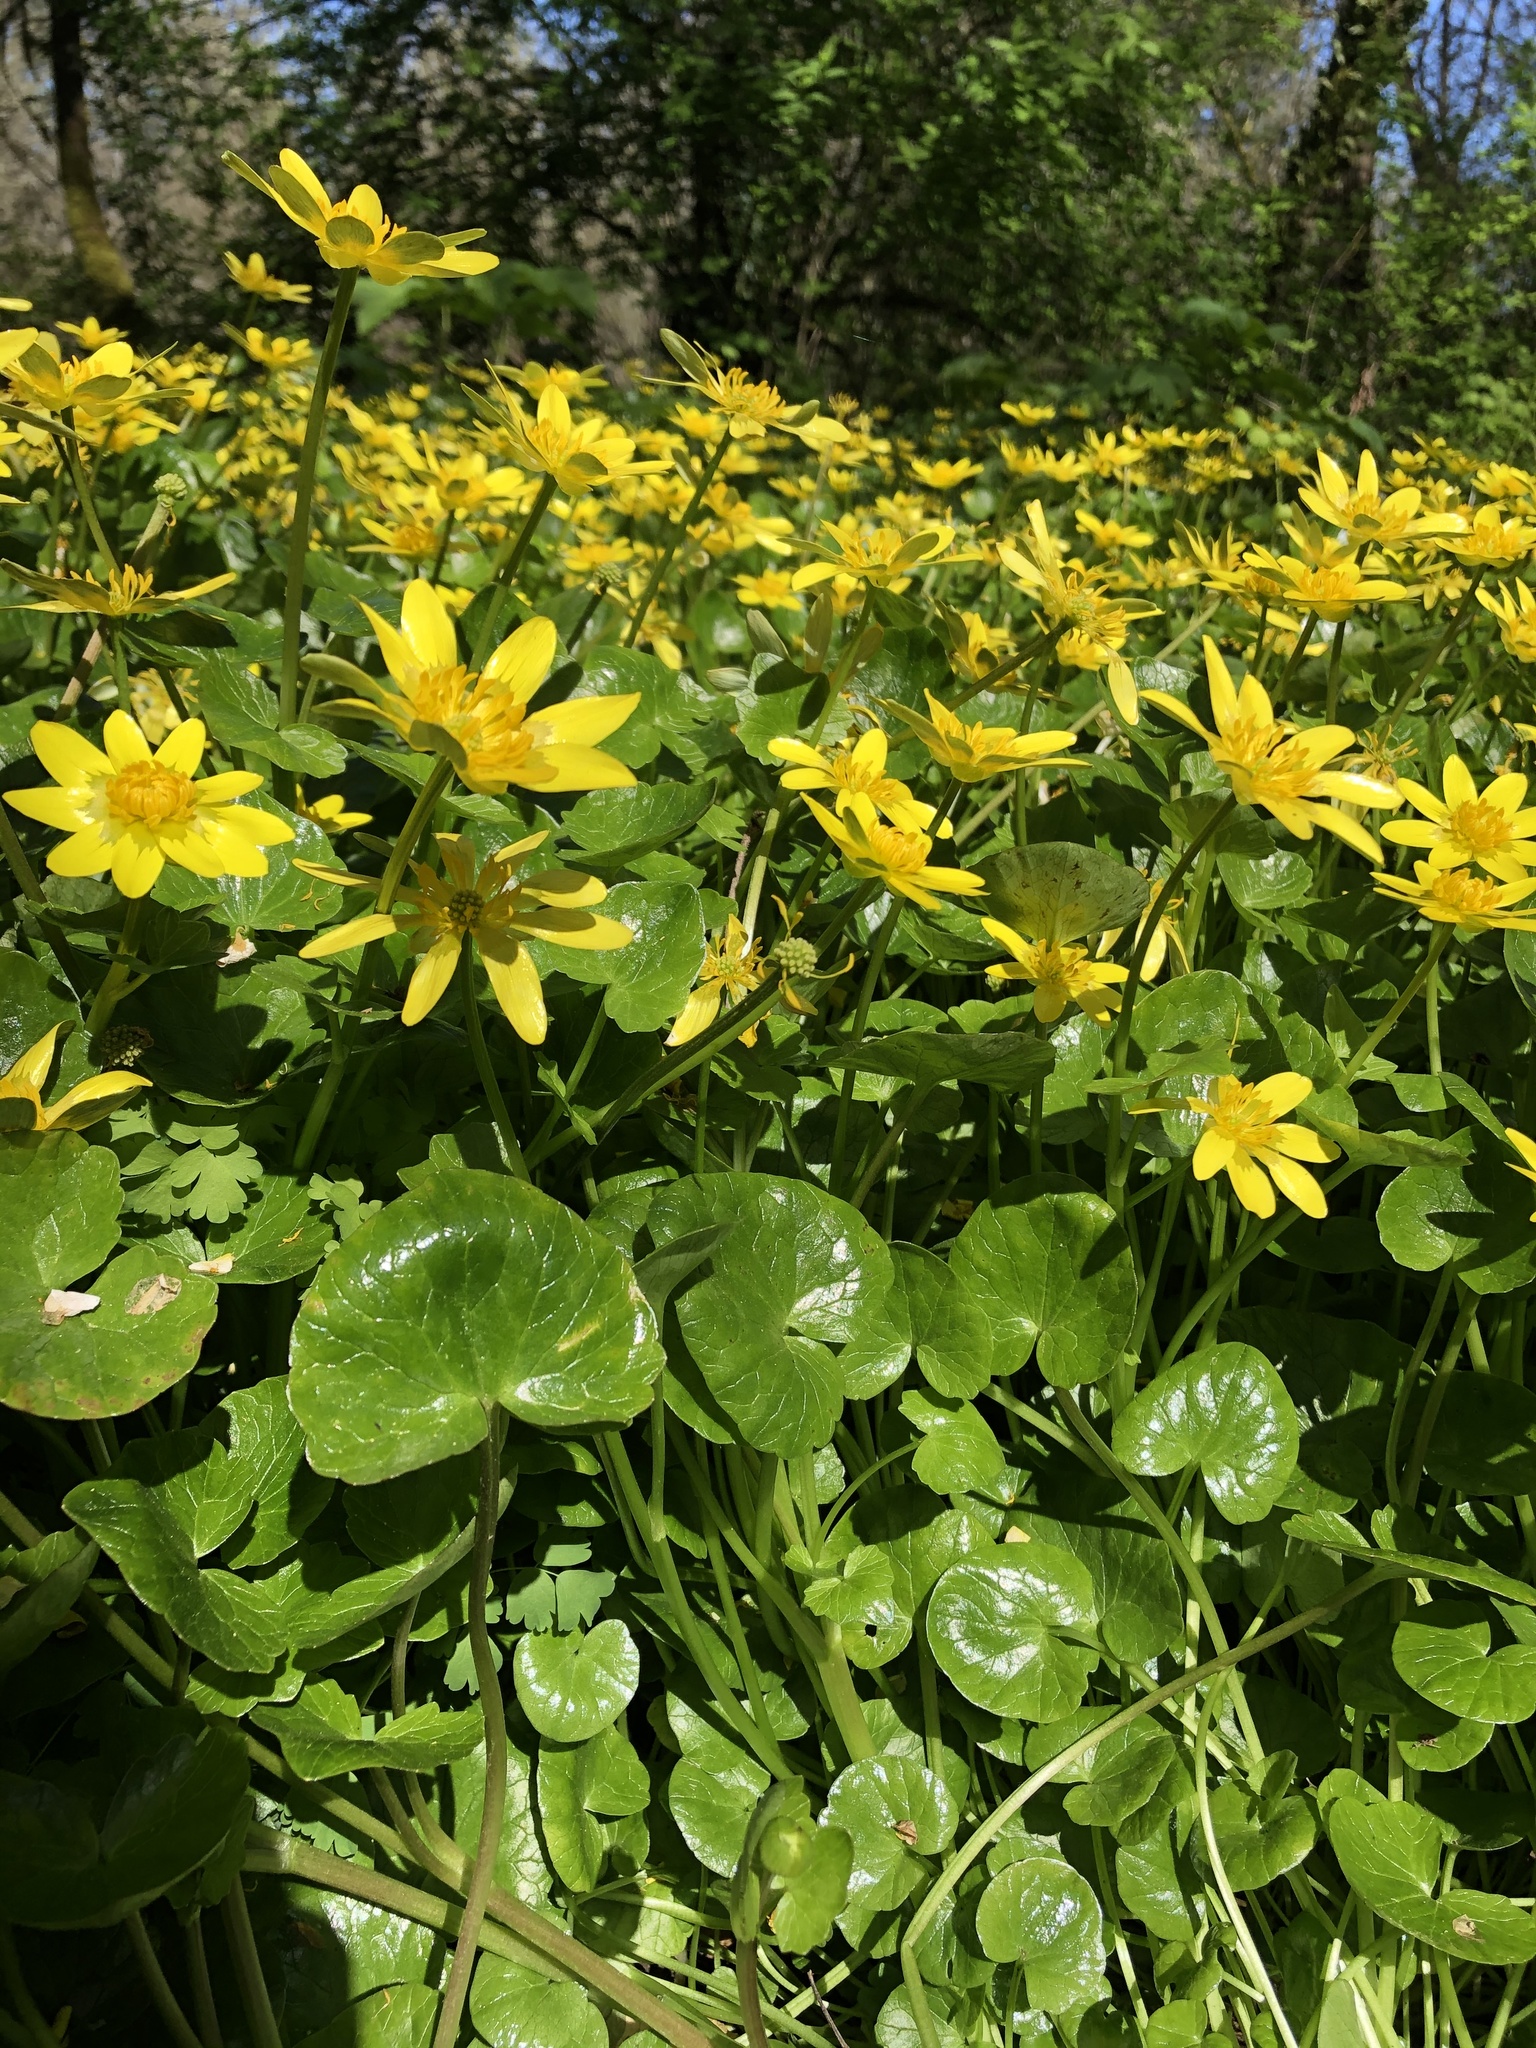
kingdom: Plantae
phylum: Tracheophyta
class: Magnoliopsida
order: Ranunculales
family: Ranunculaceae
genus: Ficaria
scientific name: Ficaria verna
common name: Lesser celandine
